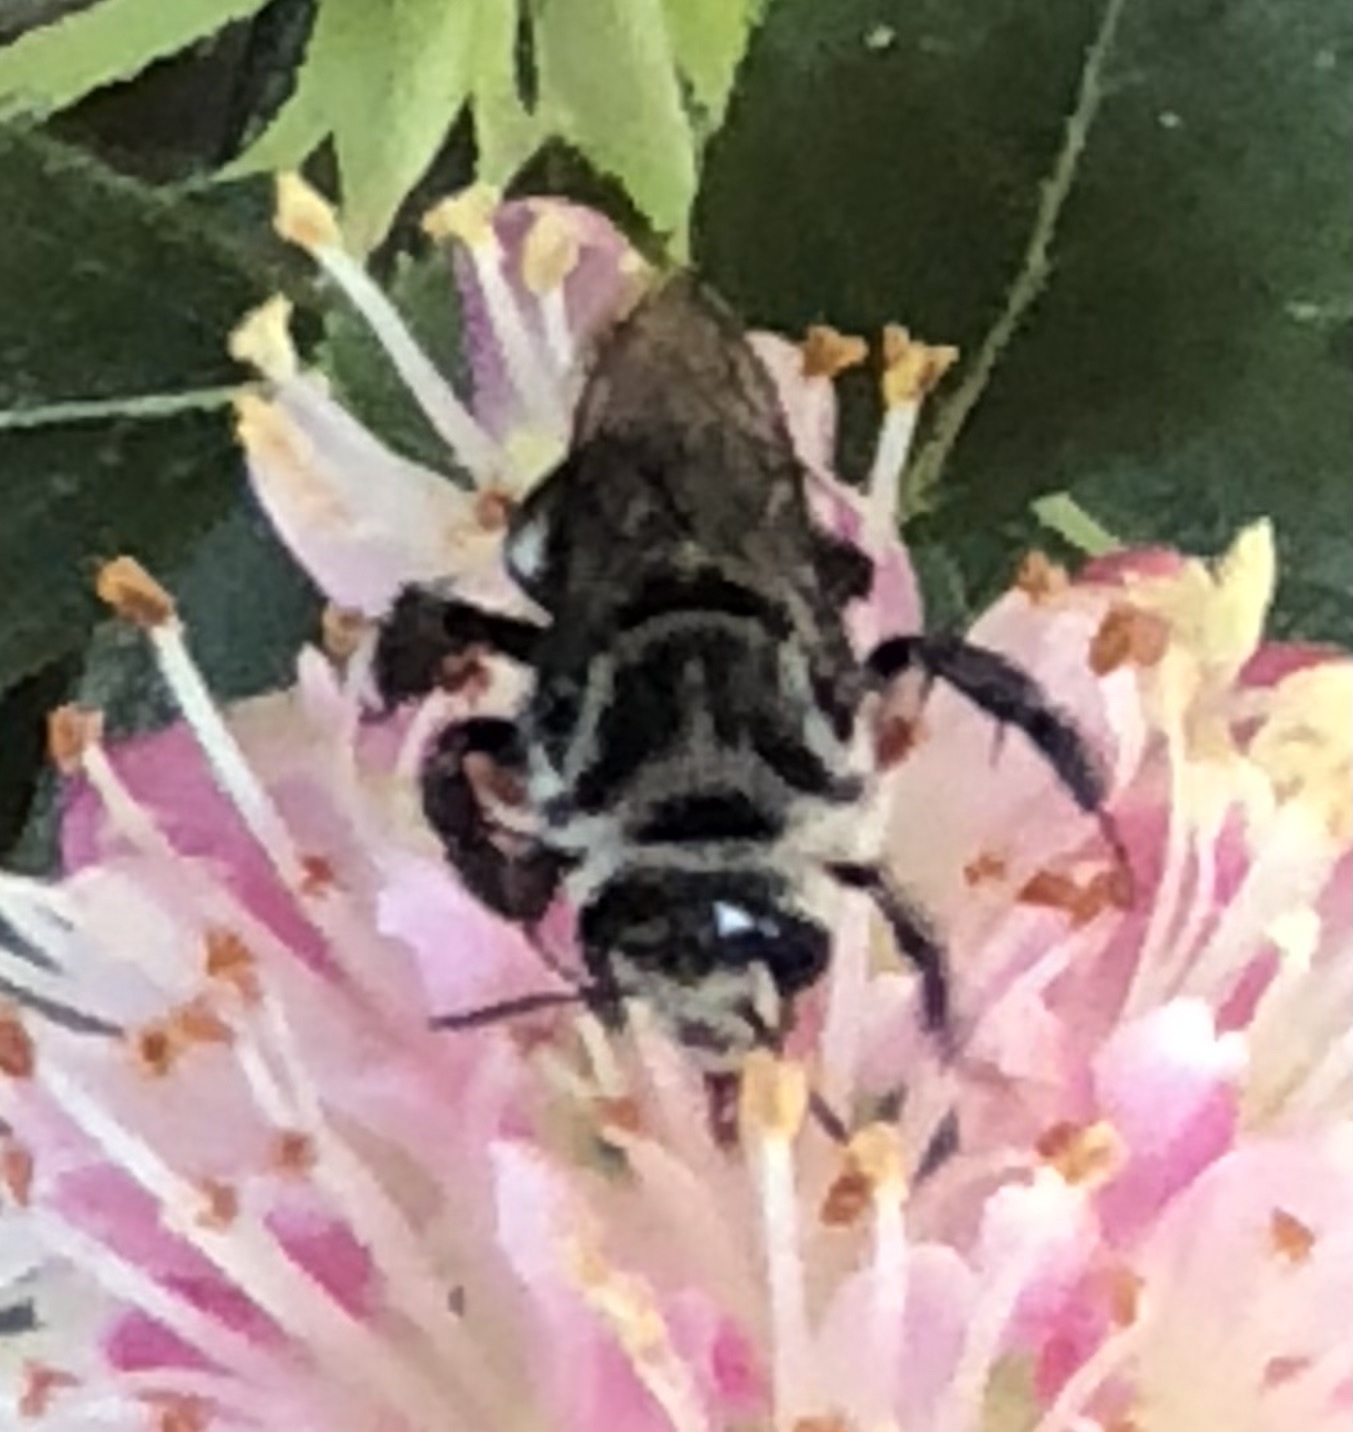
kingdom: Animalia
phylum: Arthropoda
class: Insecta
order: Hymenoptera
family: Apidae
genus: Melitoma
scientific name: Melitoma taurea
